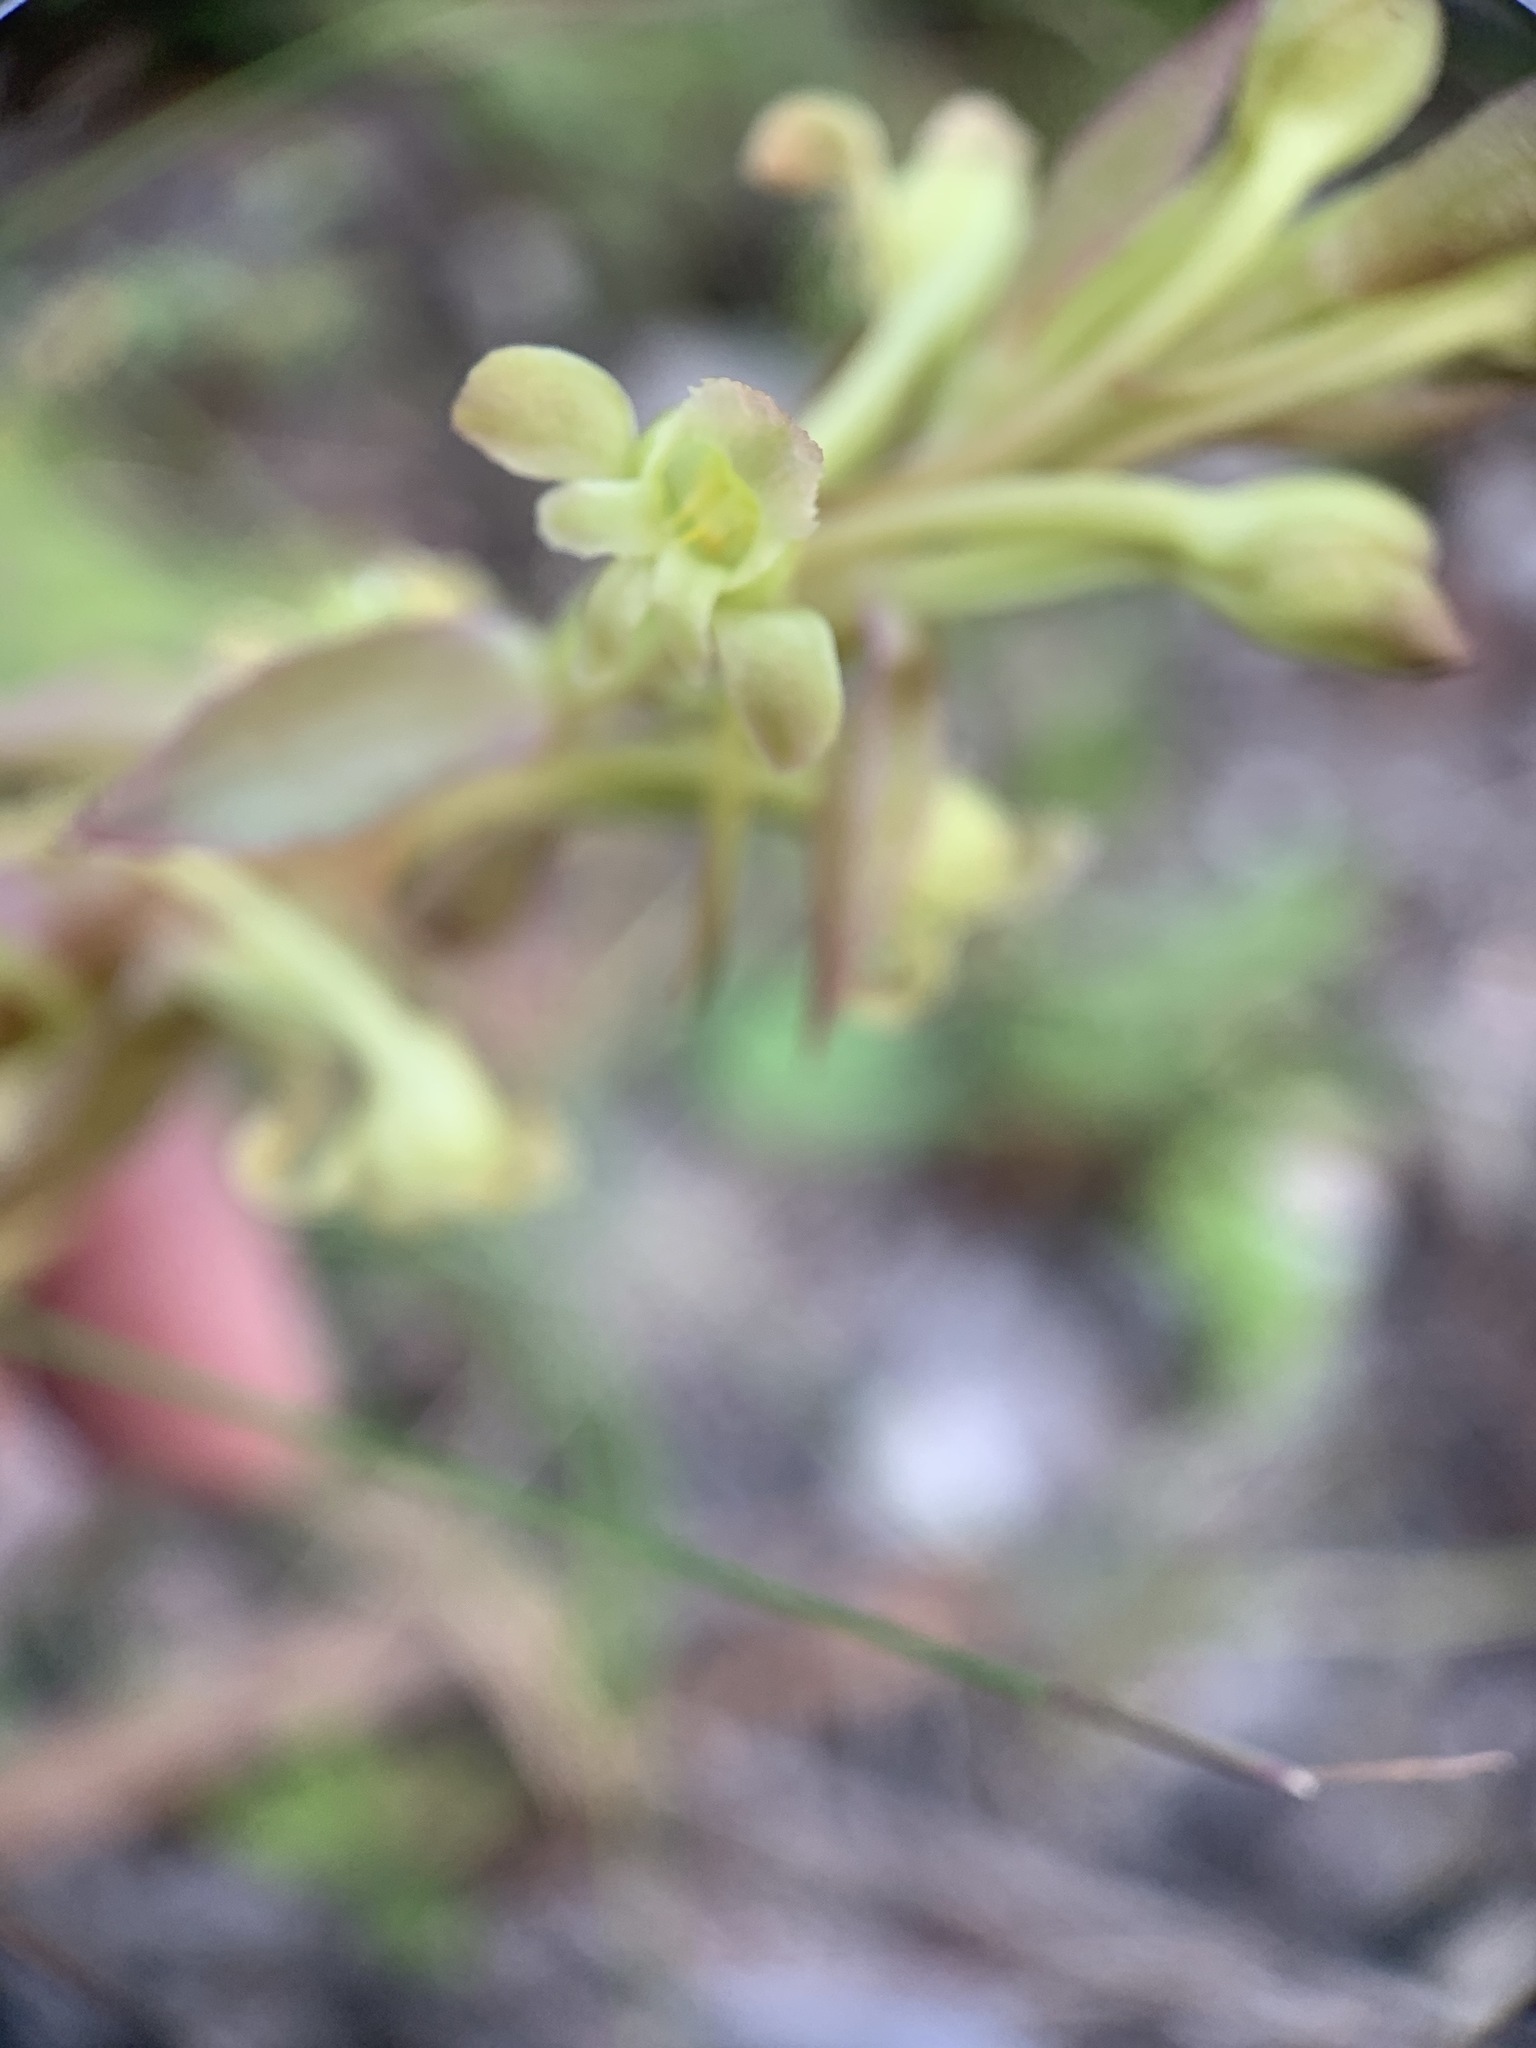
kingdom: Plantae
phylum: Tracheophyta
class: Liliopsida
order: Asparagales
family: Orchidaceae
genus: Satyrium
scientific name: Satyrium humile
